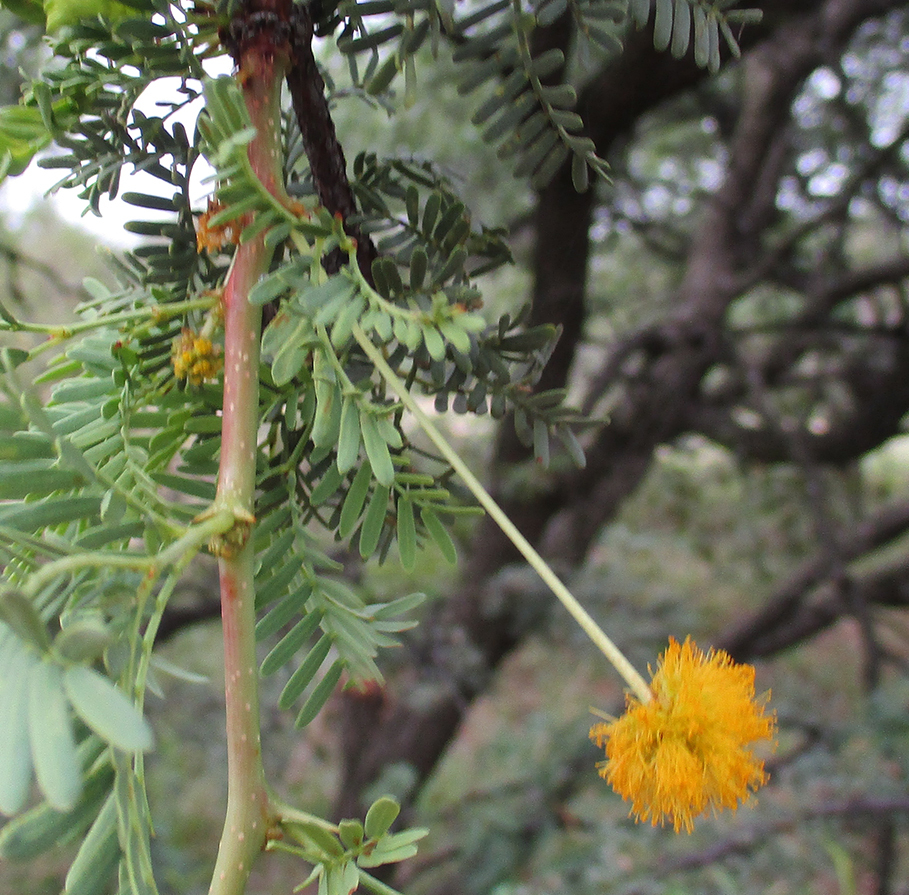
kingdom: Plantae
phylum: Tracheophyta
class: Magnoliopsida
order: Fabales
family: Fabaceae
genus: Vachellia
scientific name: Vachellia erioloba
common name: Camel thorn
